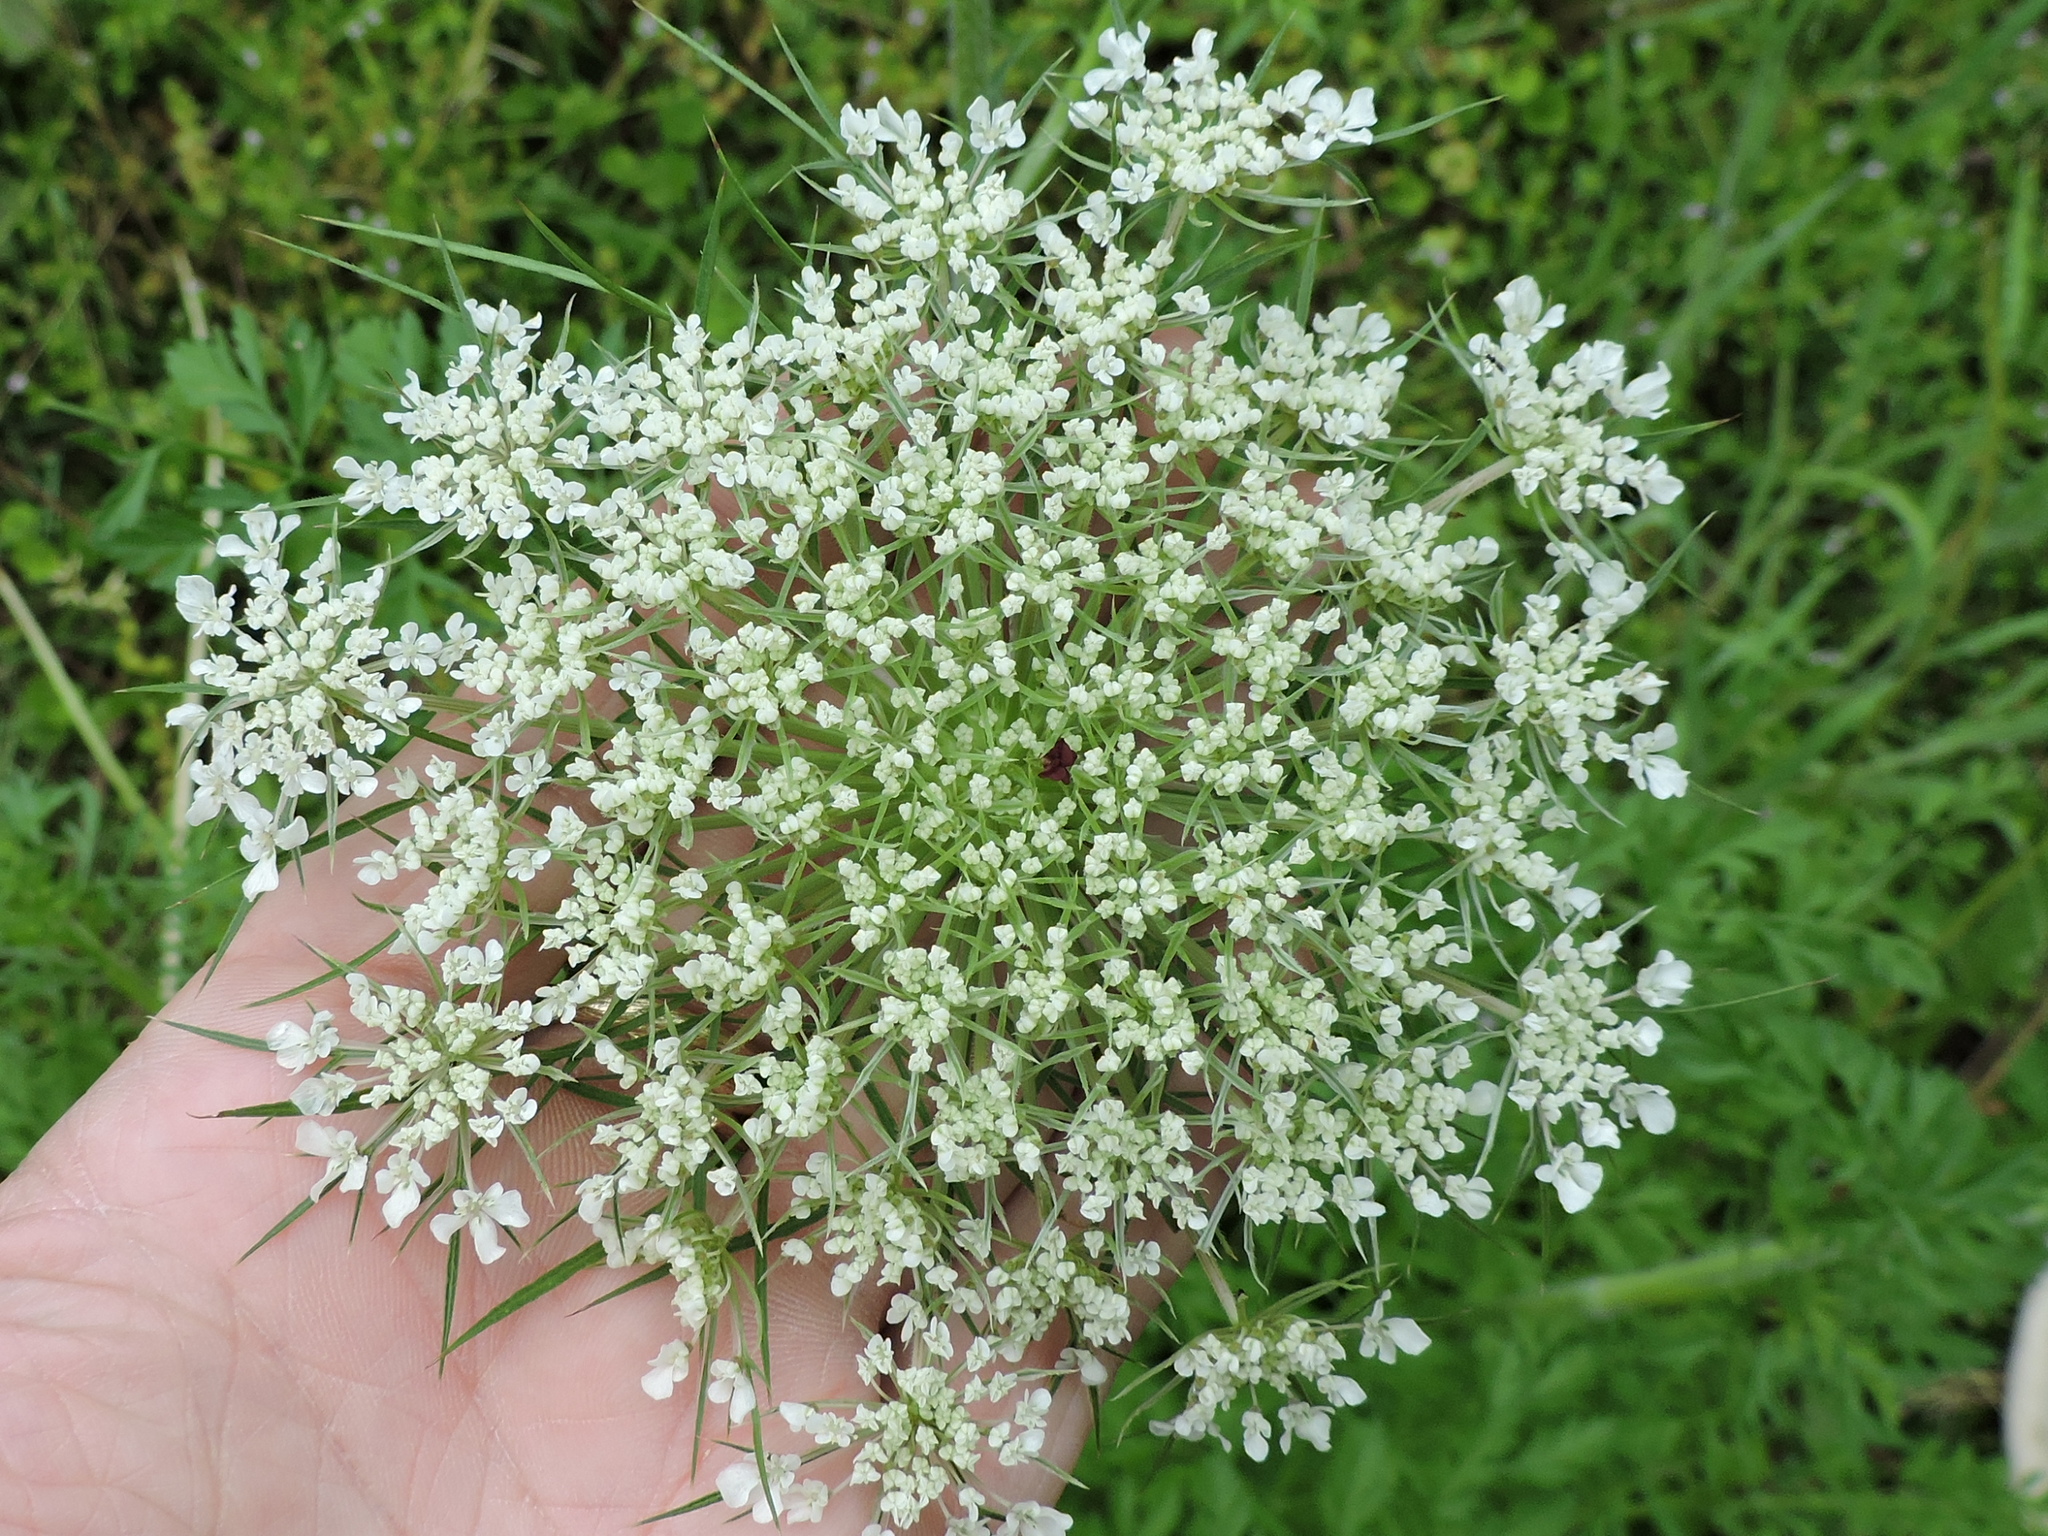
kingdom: Plantae
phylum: Tracheophyta
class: Magnoliopsida
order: Apiales
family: Apiaceae
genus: Daucus
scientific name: Daucus carota
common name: Wild carrot
